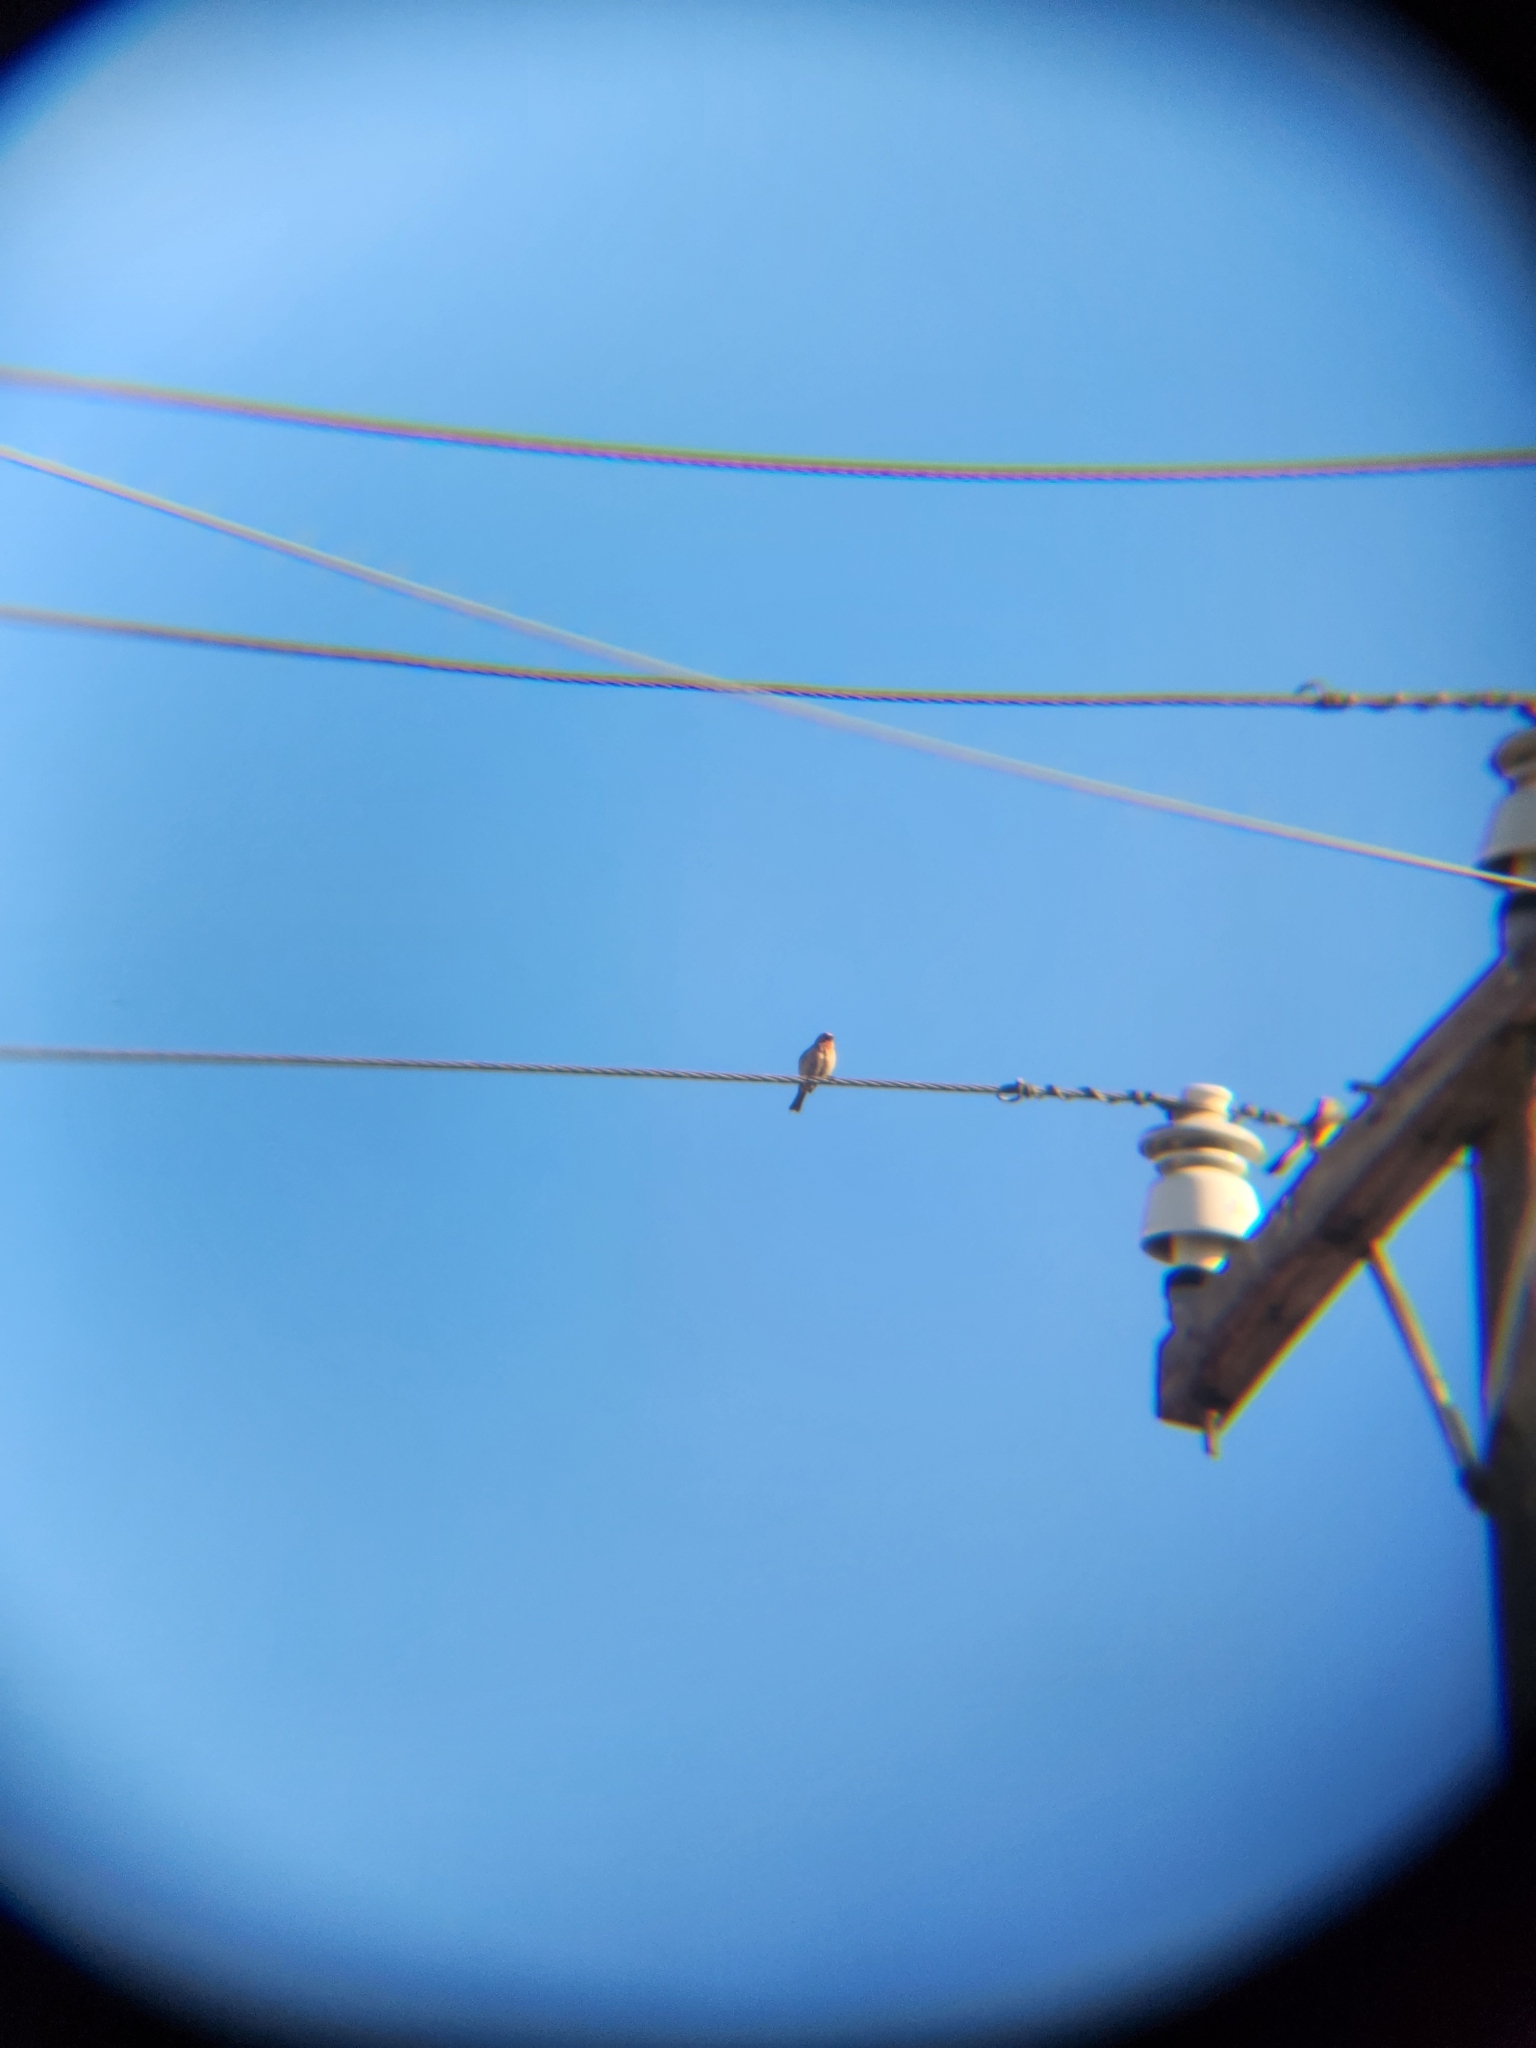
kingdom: Animalia
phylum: Chordata
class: Aves
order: Passeriformes
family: Fringillidae
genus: Haemorhous
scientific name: Haemorhous mexicanus
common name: House finch
